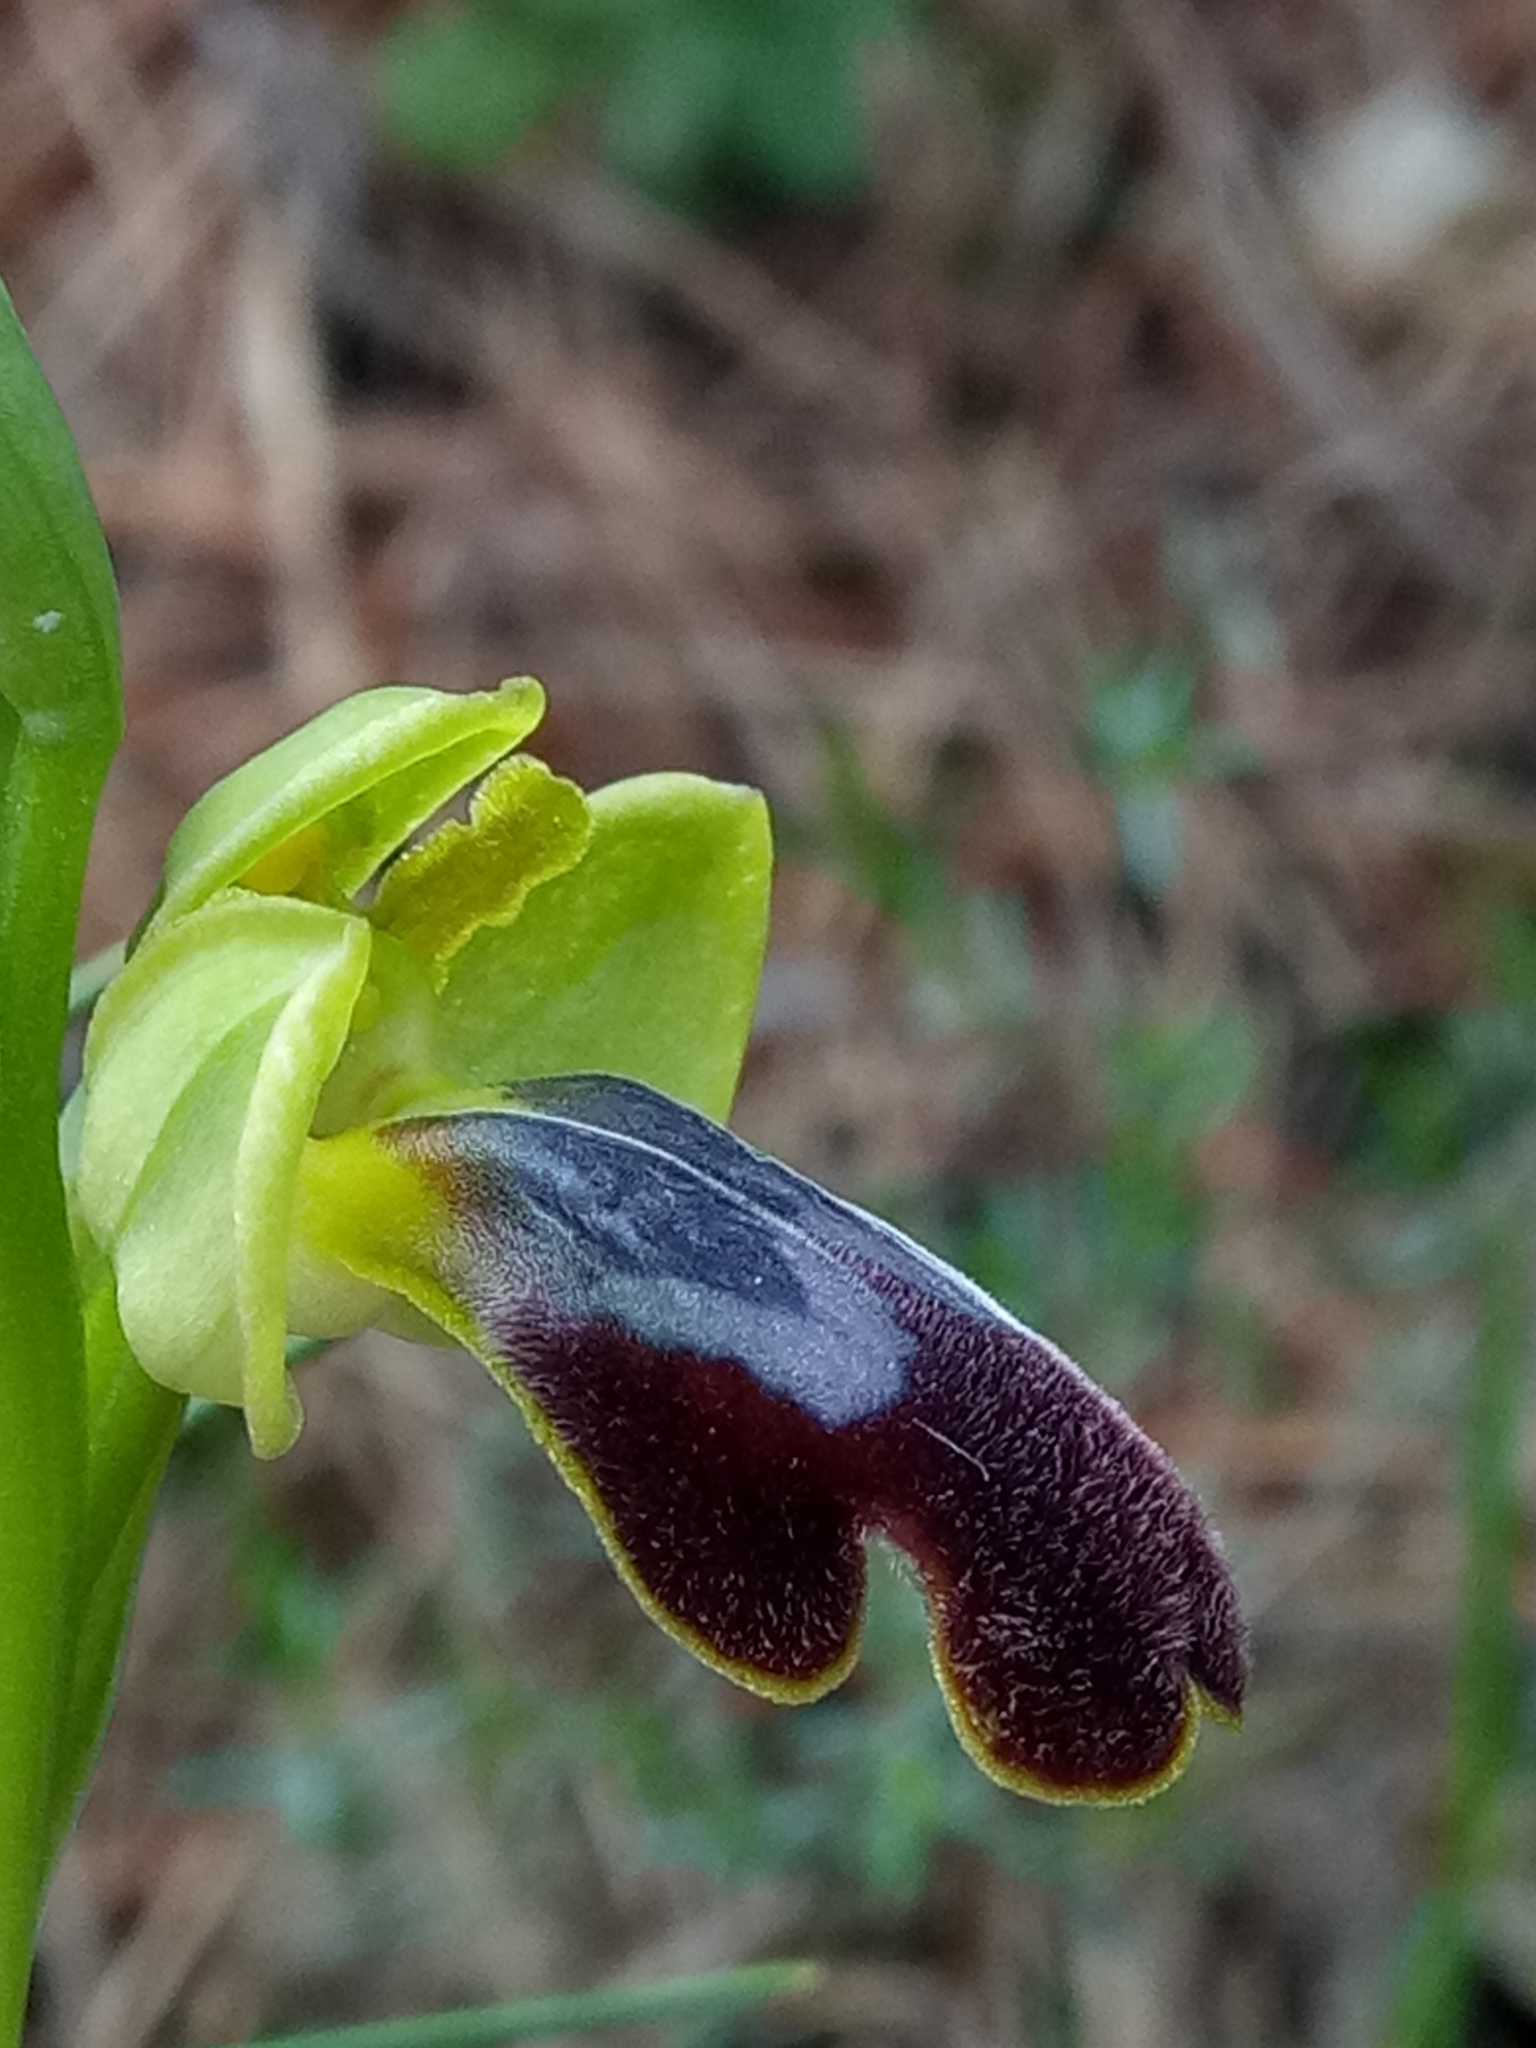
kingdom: Plantae
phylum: Tracheophyta
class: Liliopsida
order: Asparagales
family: Orchidaceae
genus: Ophrys
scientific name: Ophrys fusca
